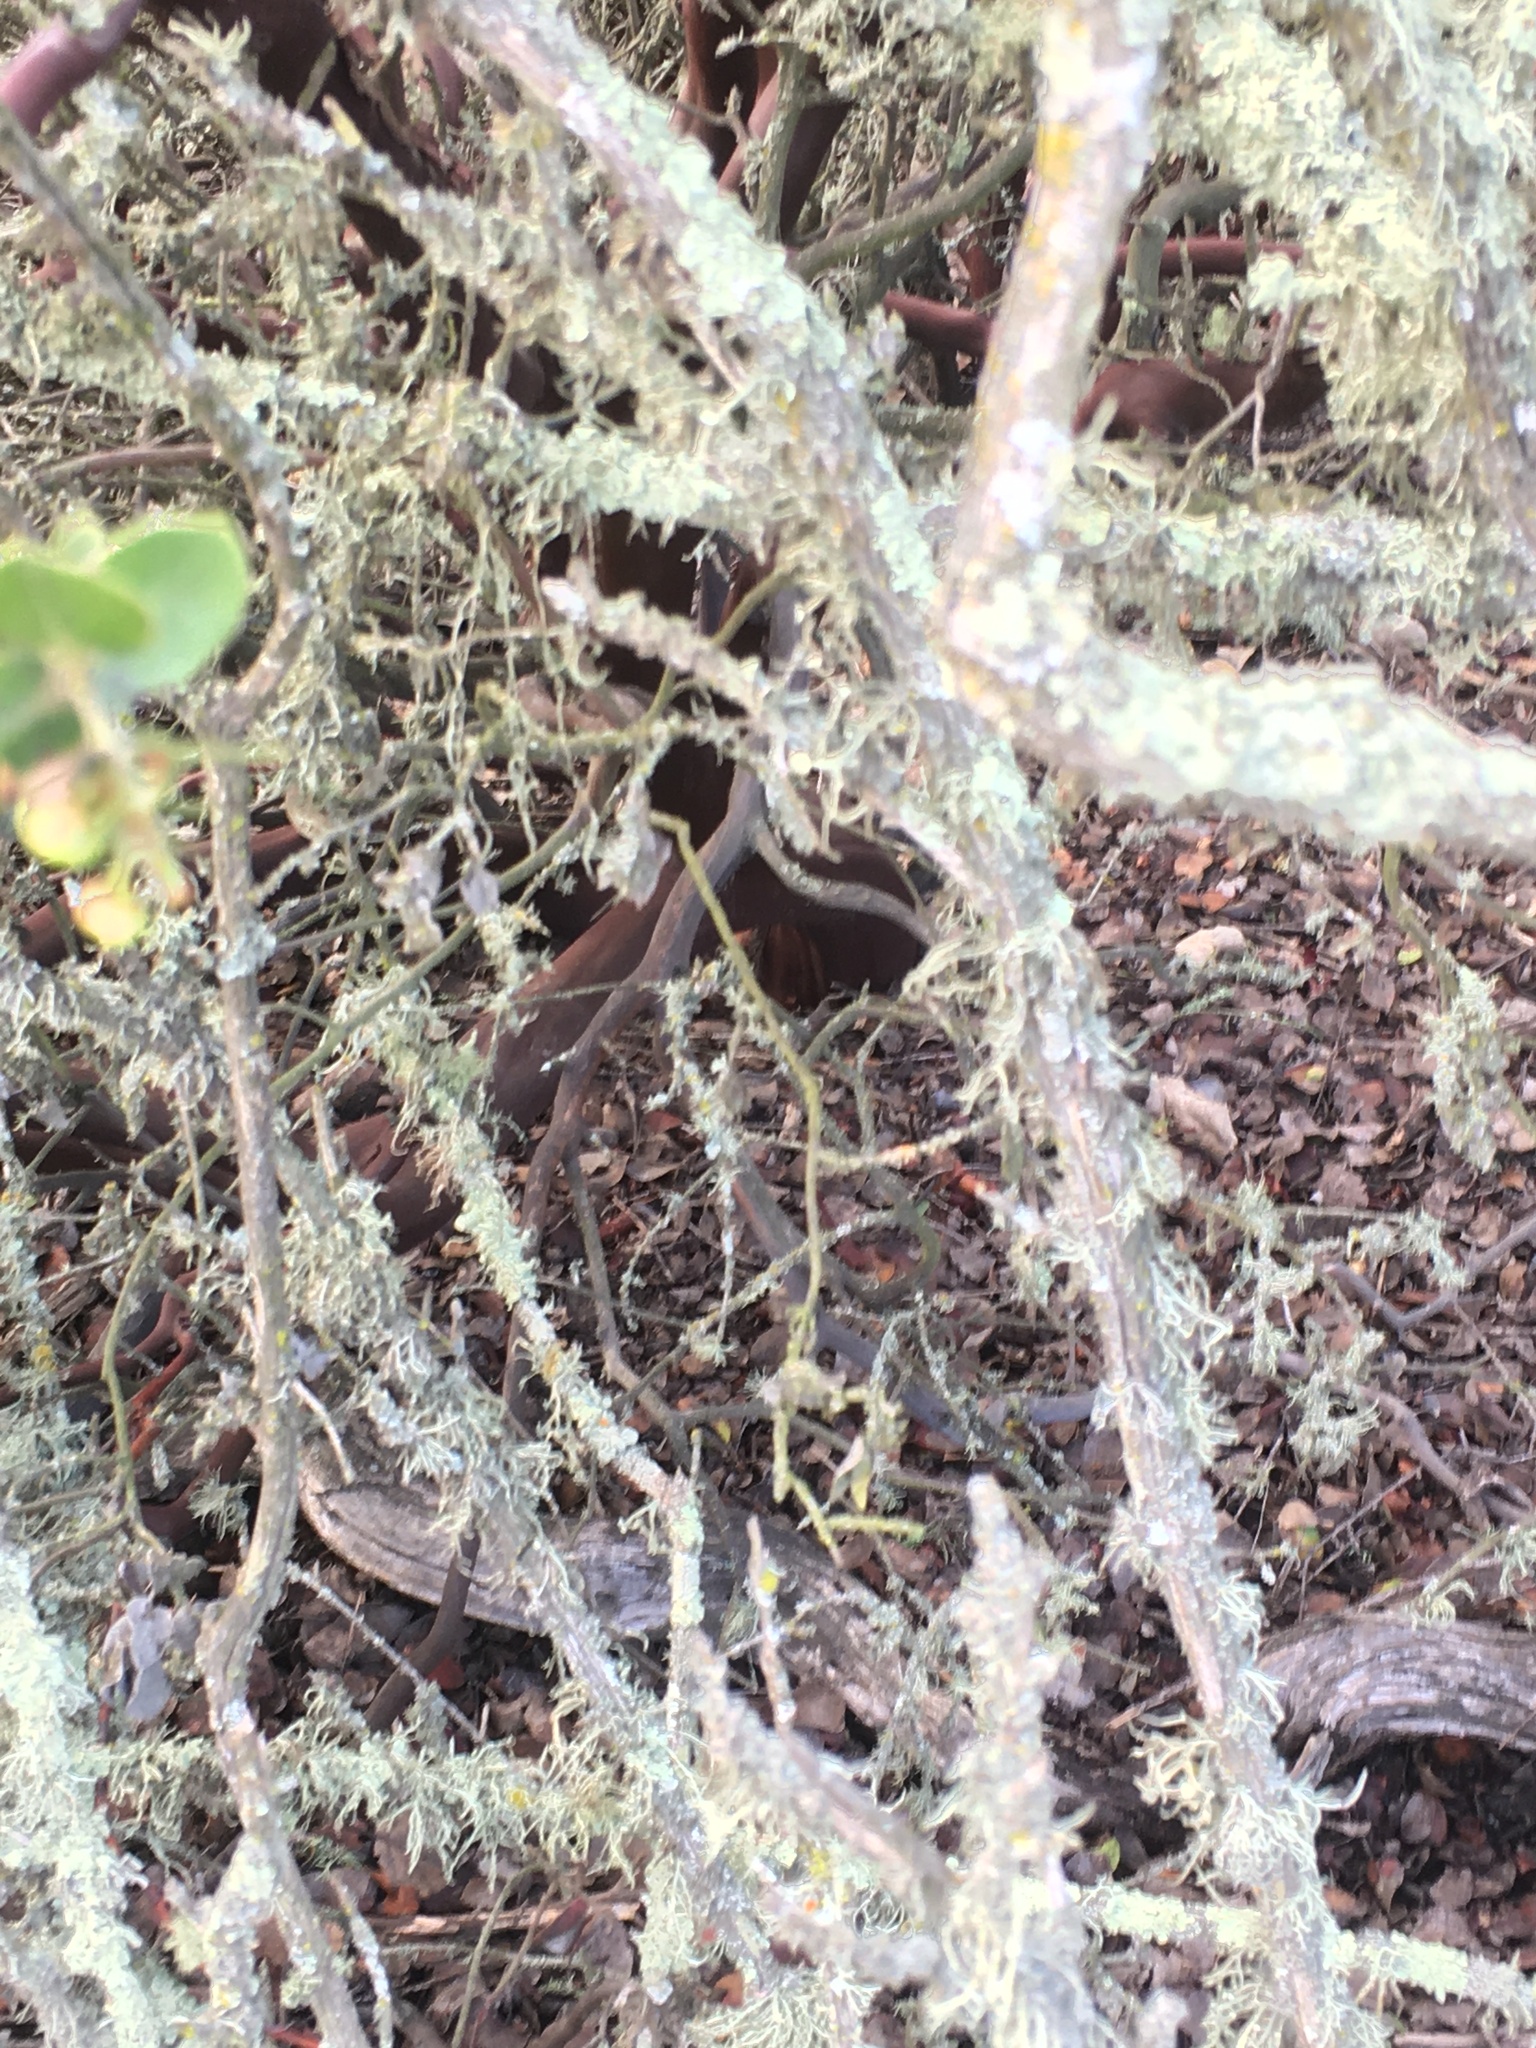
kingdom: Plantae
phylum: Tracheophyta
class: Magnoliopsida
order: Ericales
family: Ericaceae
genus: Arctostaphylos
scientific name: Arctostaphylos purissima
